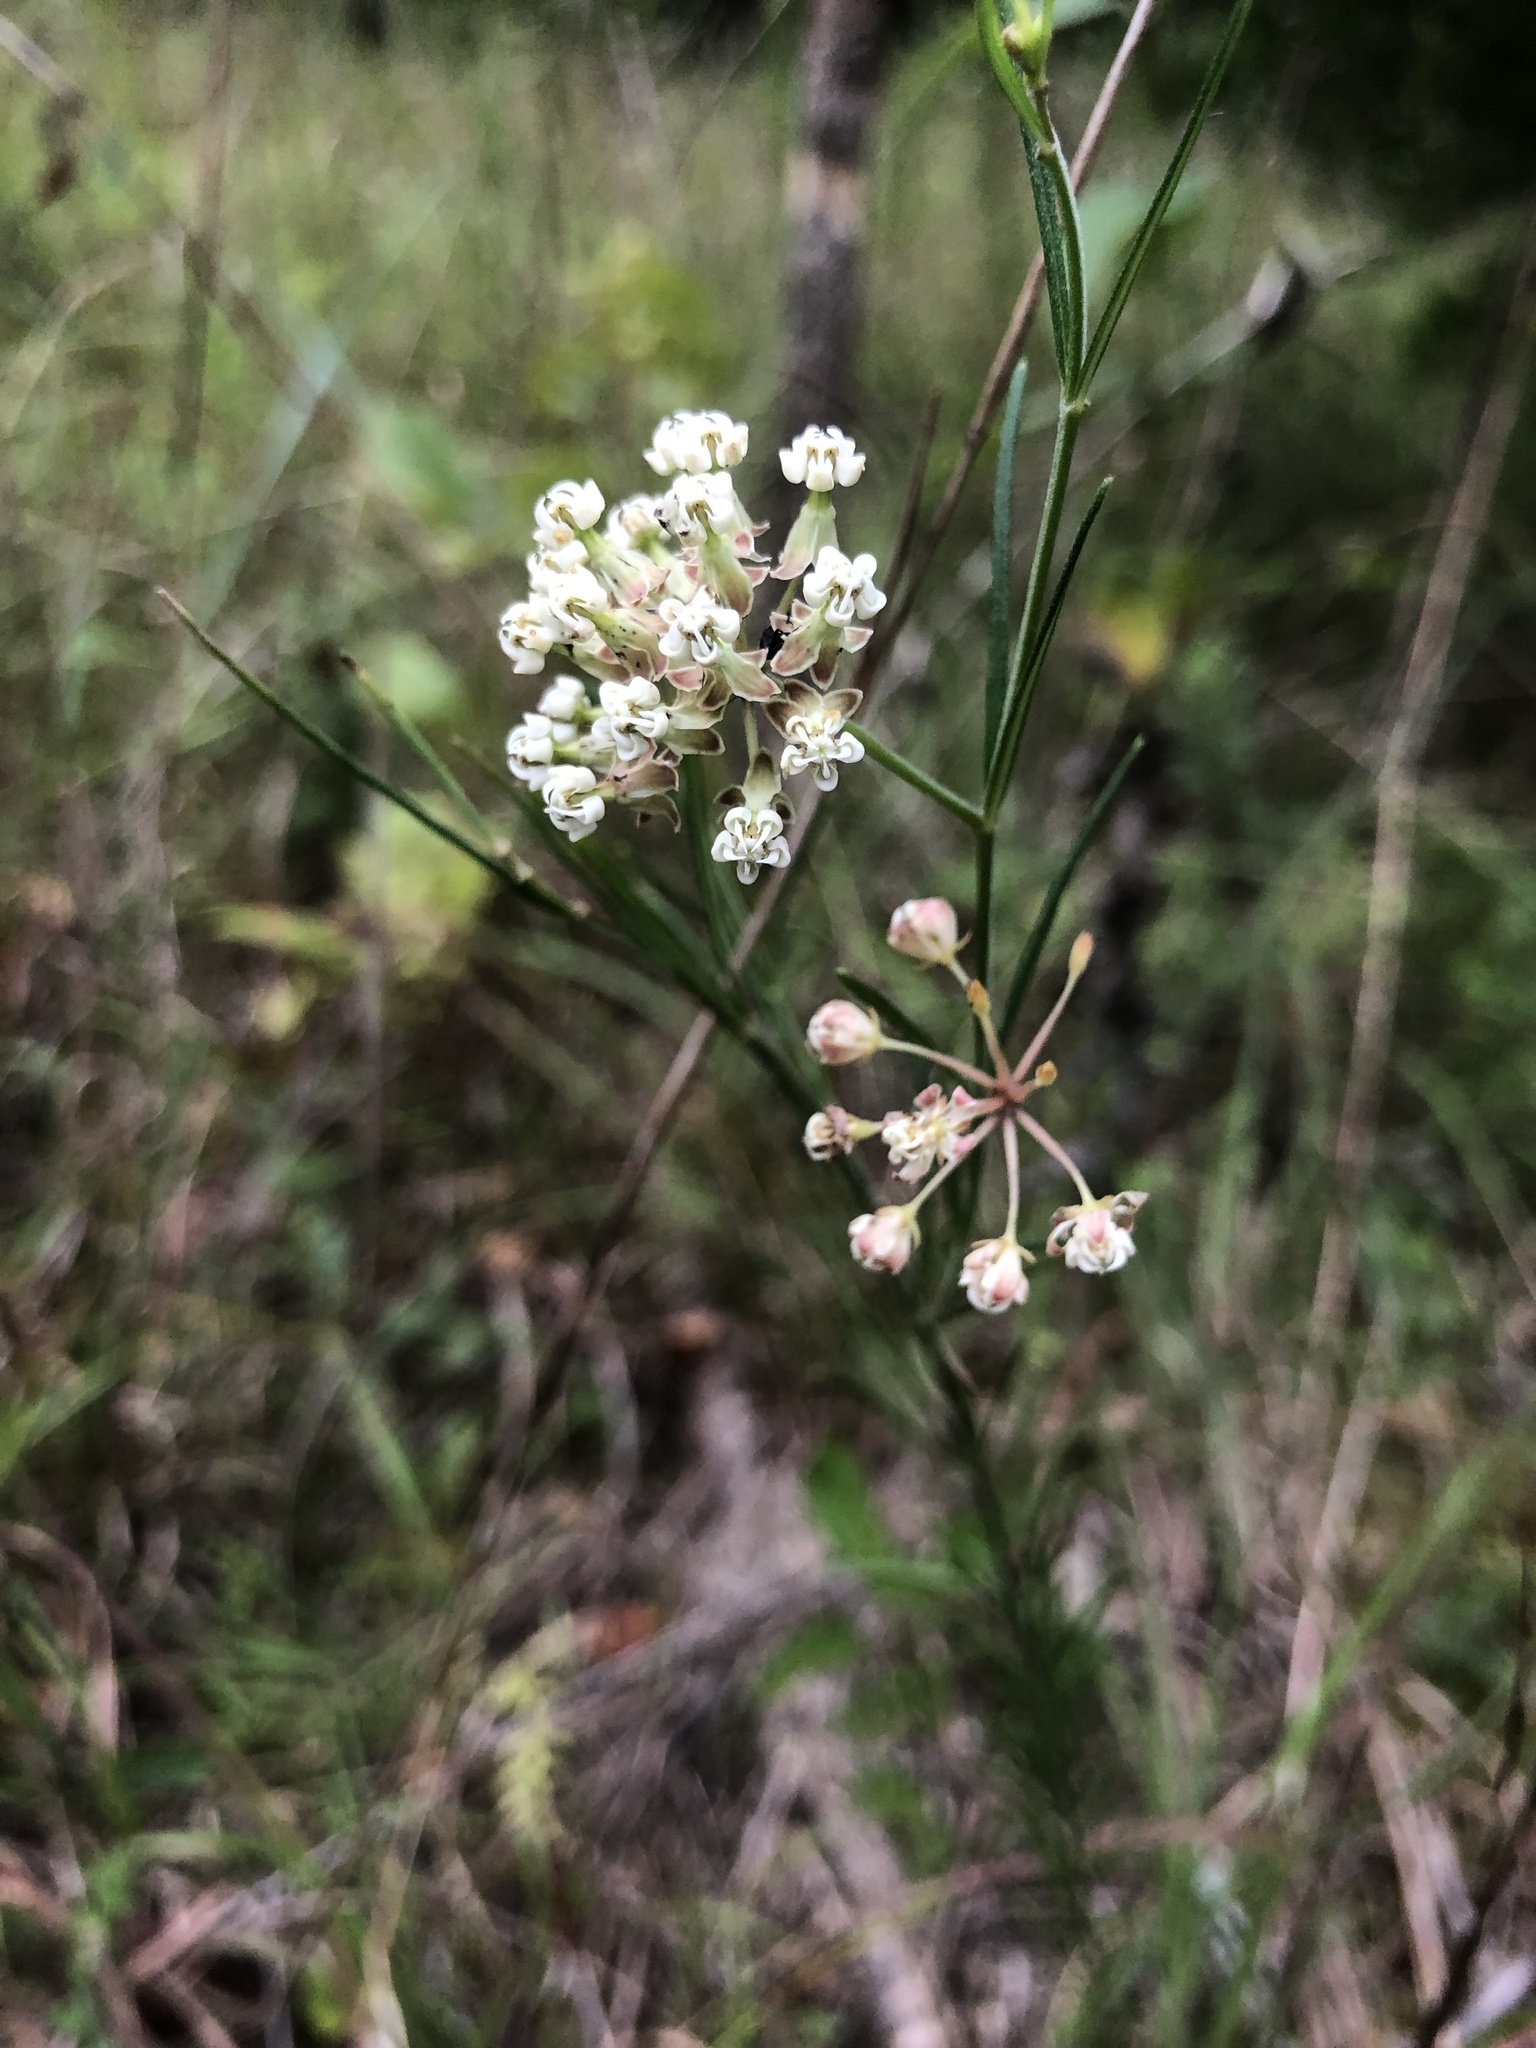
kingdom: Plantae
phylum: Tracheophyta
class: Magnoliopsida
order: Gentianales
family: Apocynaceae
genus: Asclepias
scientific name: Asclepias verticillata
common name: Eastern whorled milkweed
